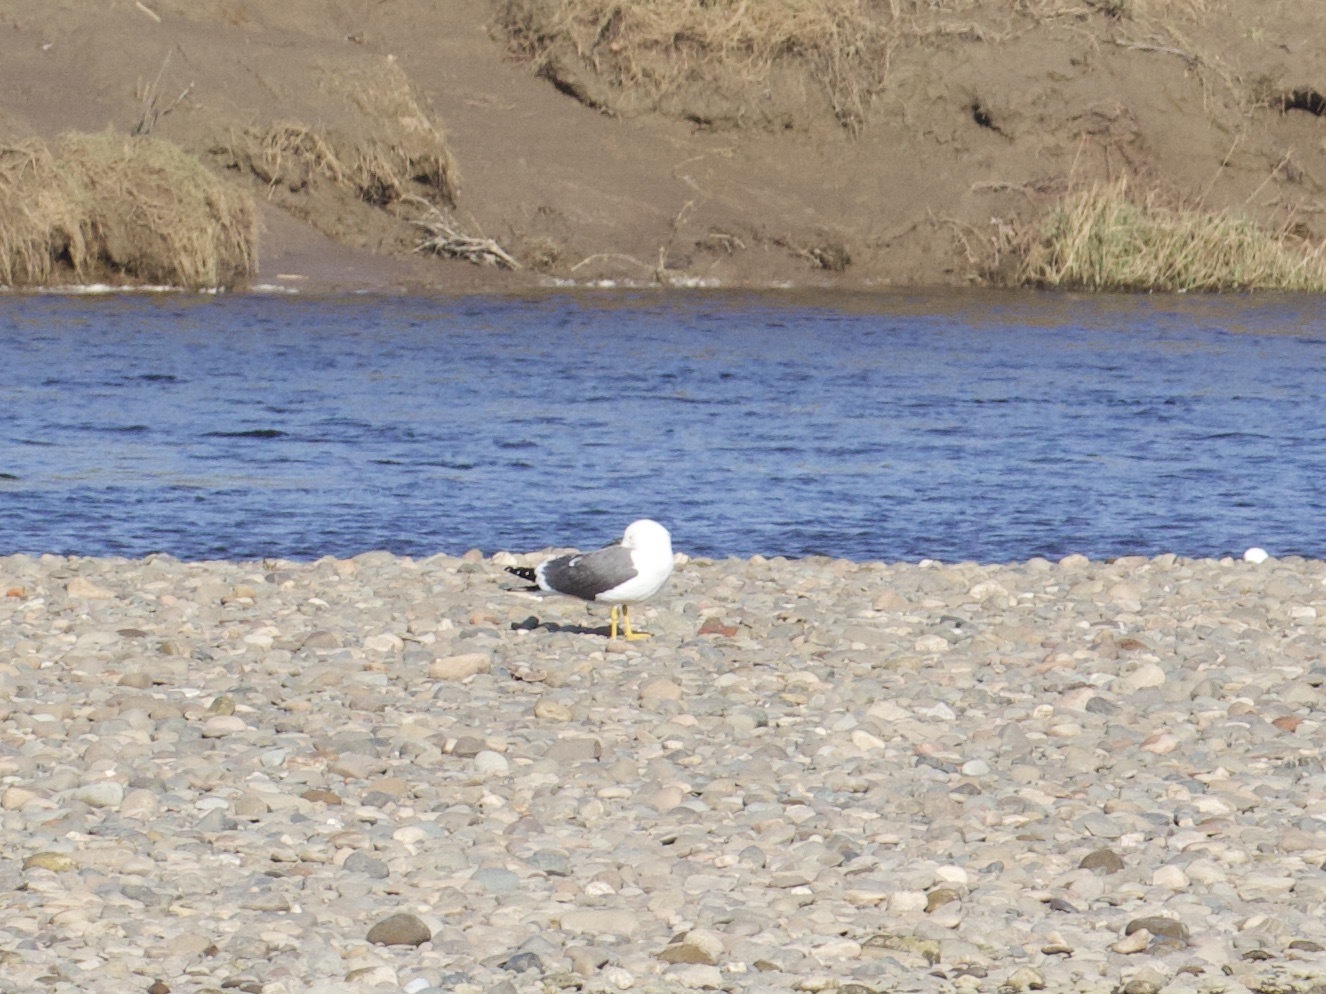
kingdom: Animalia
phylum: Chordata
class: Aves
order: Charadriiformes
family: Laridae
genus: Larus
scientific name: Larus fuscus
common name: Lesser black-backed gull
